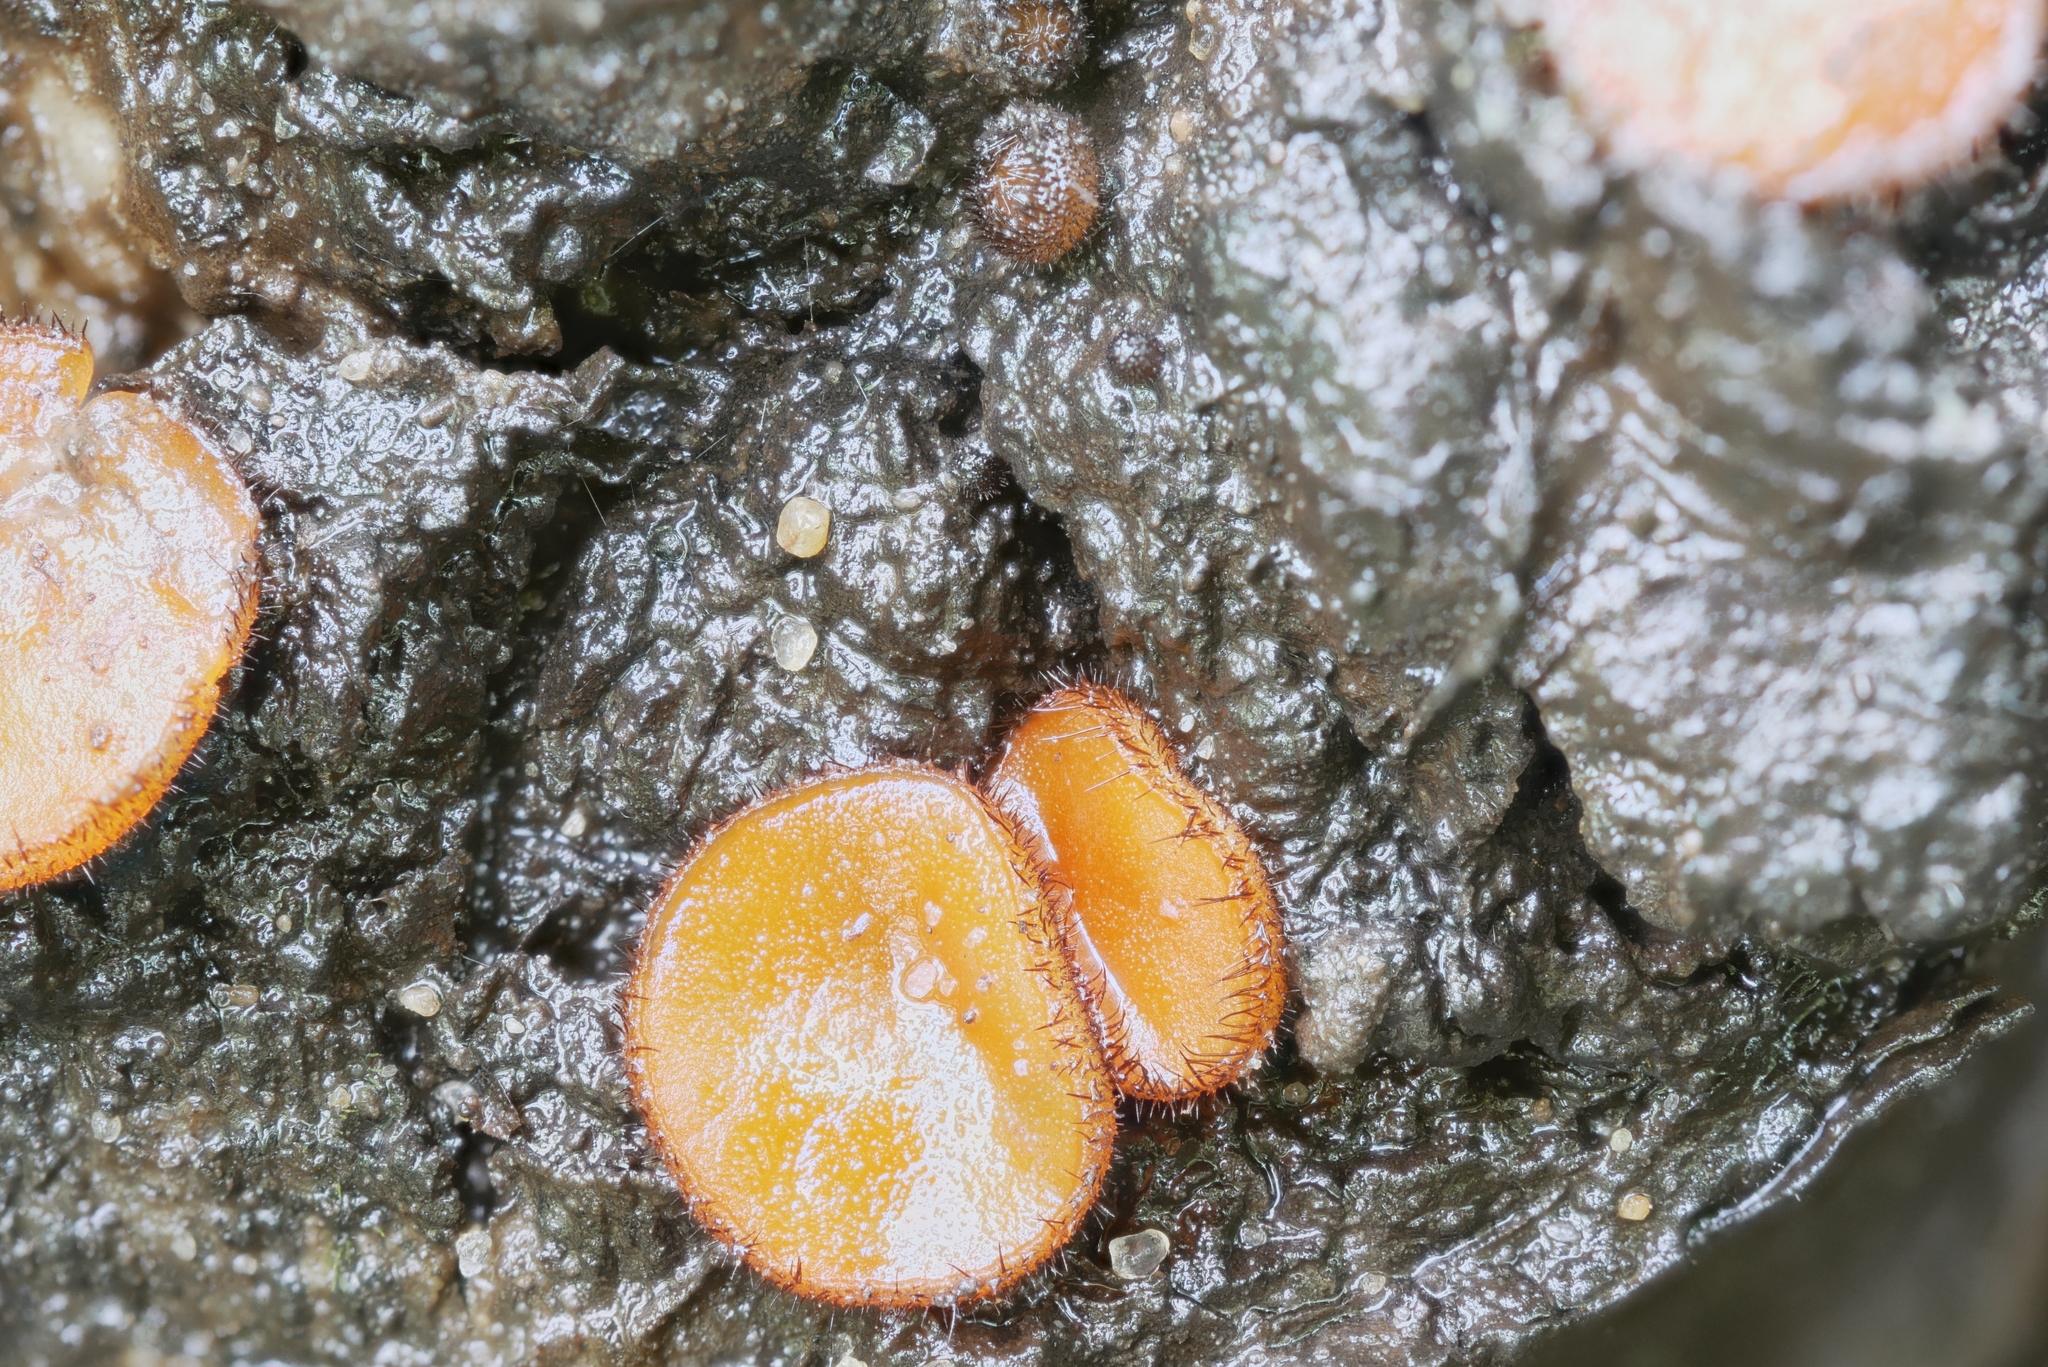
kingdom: Fungi
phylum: Ascomycota
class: Pezizomycetes
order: Pezizales
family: Pyronemataceae
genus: Scutellinia
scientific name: Scutellinia vitreola
